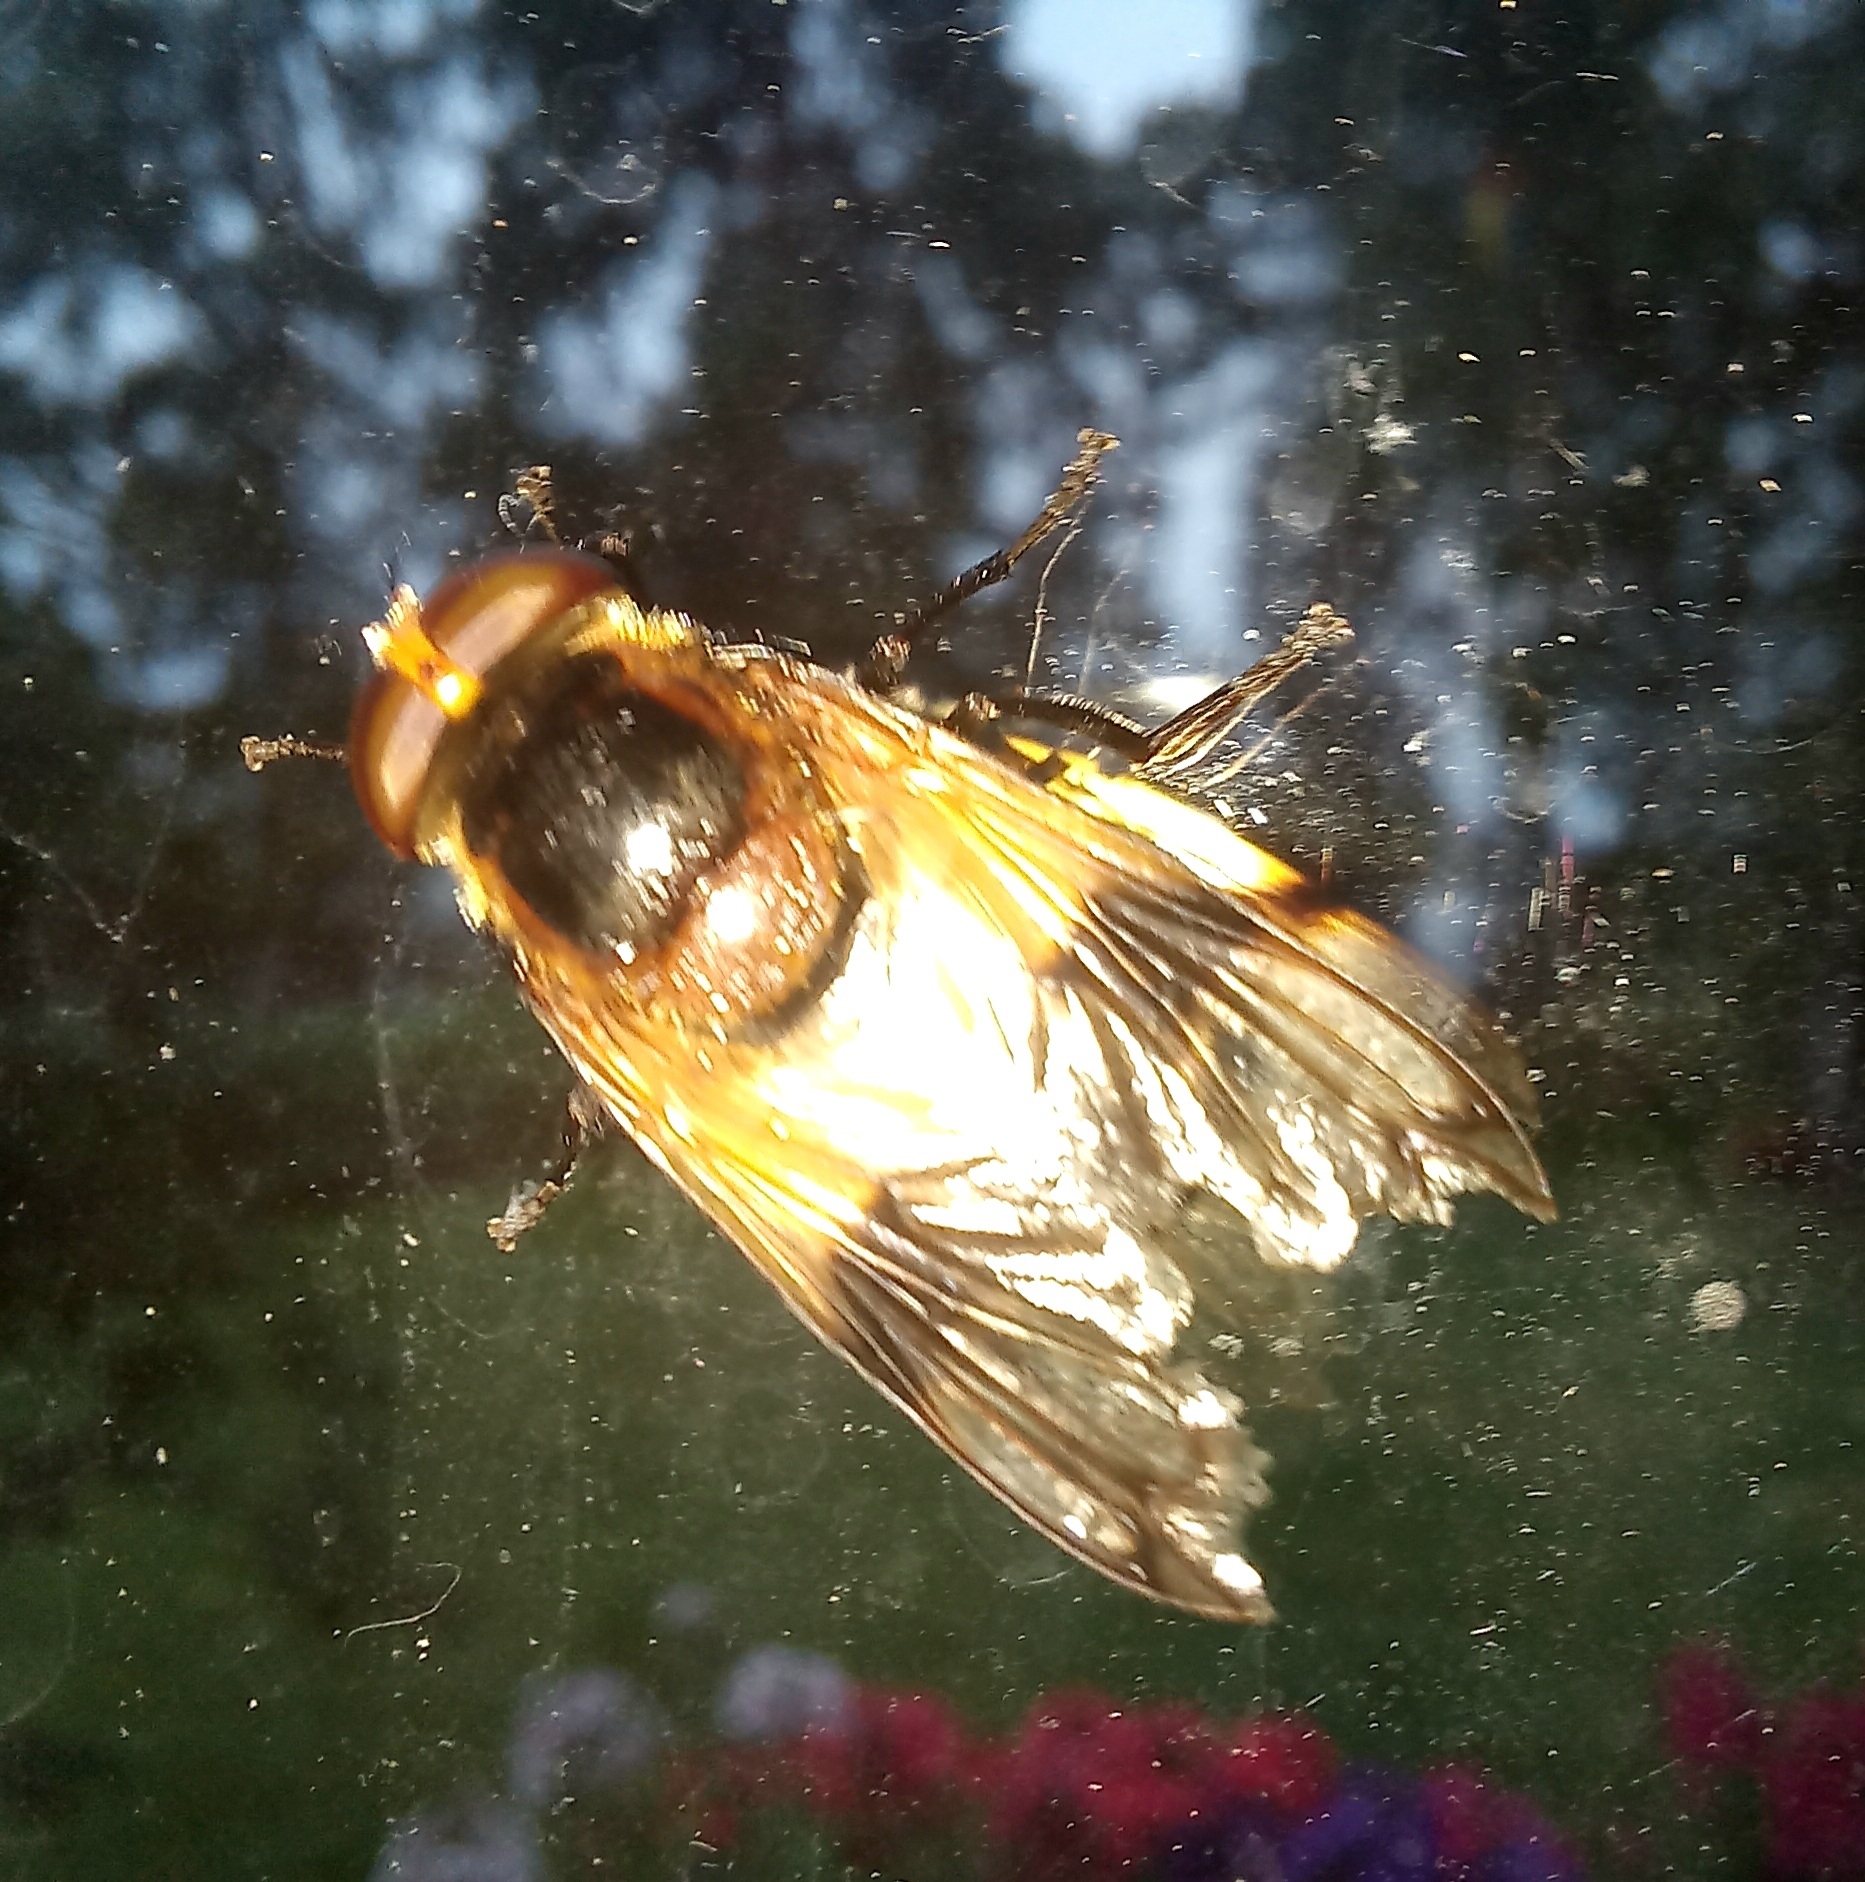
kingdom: Animalia
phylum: Arthropoda
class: Insecta
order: Diptera
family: Syrphidae
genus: Volucella
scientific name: Volucella pellucens
